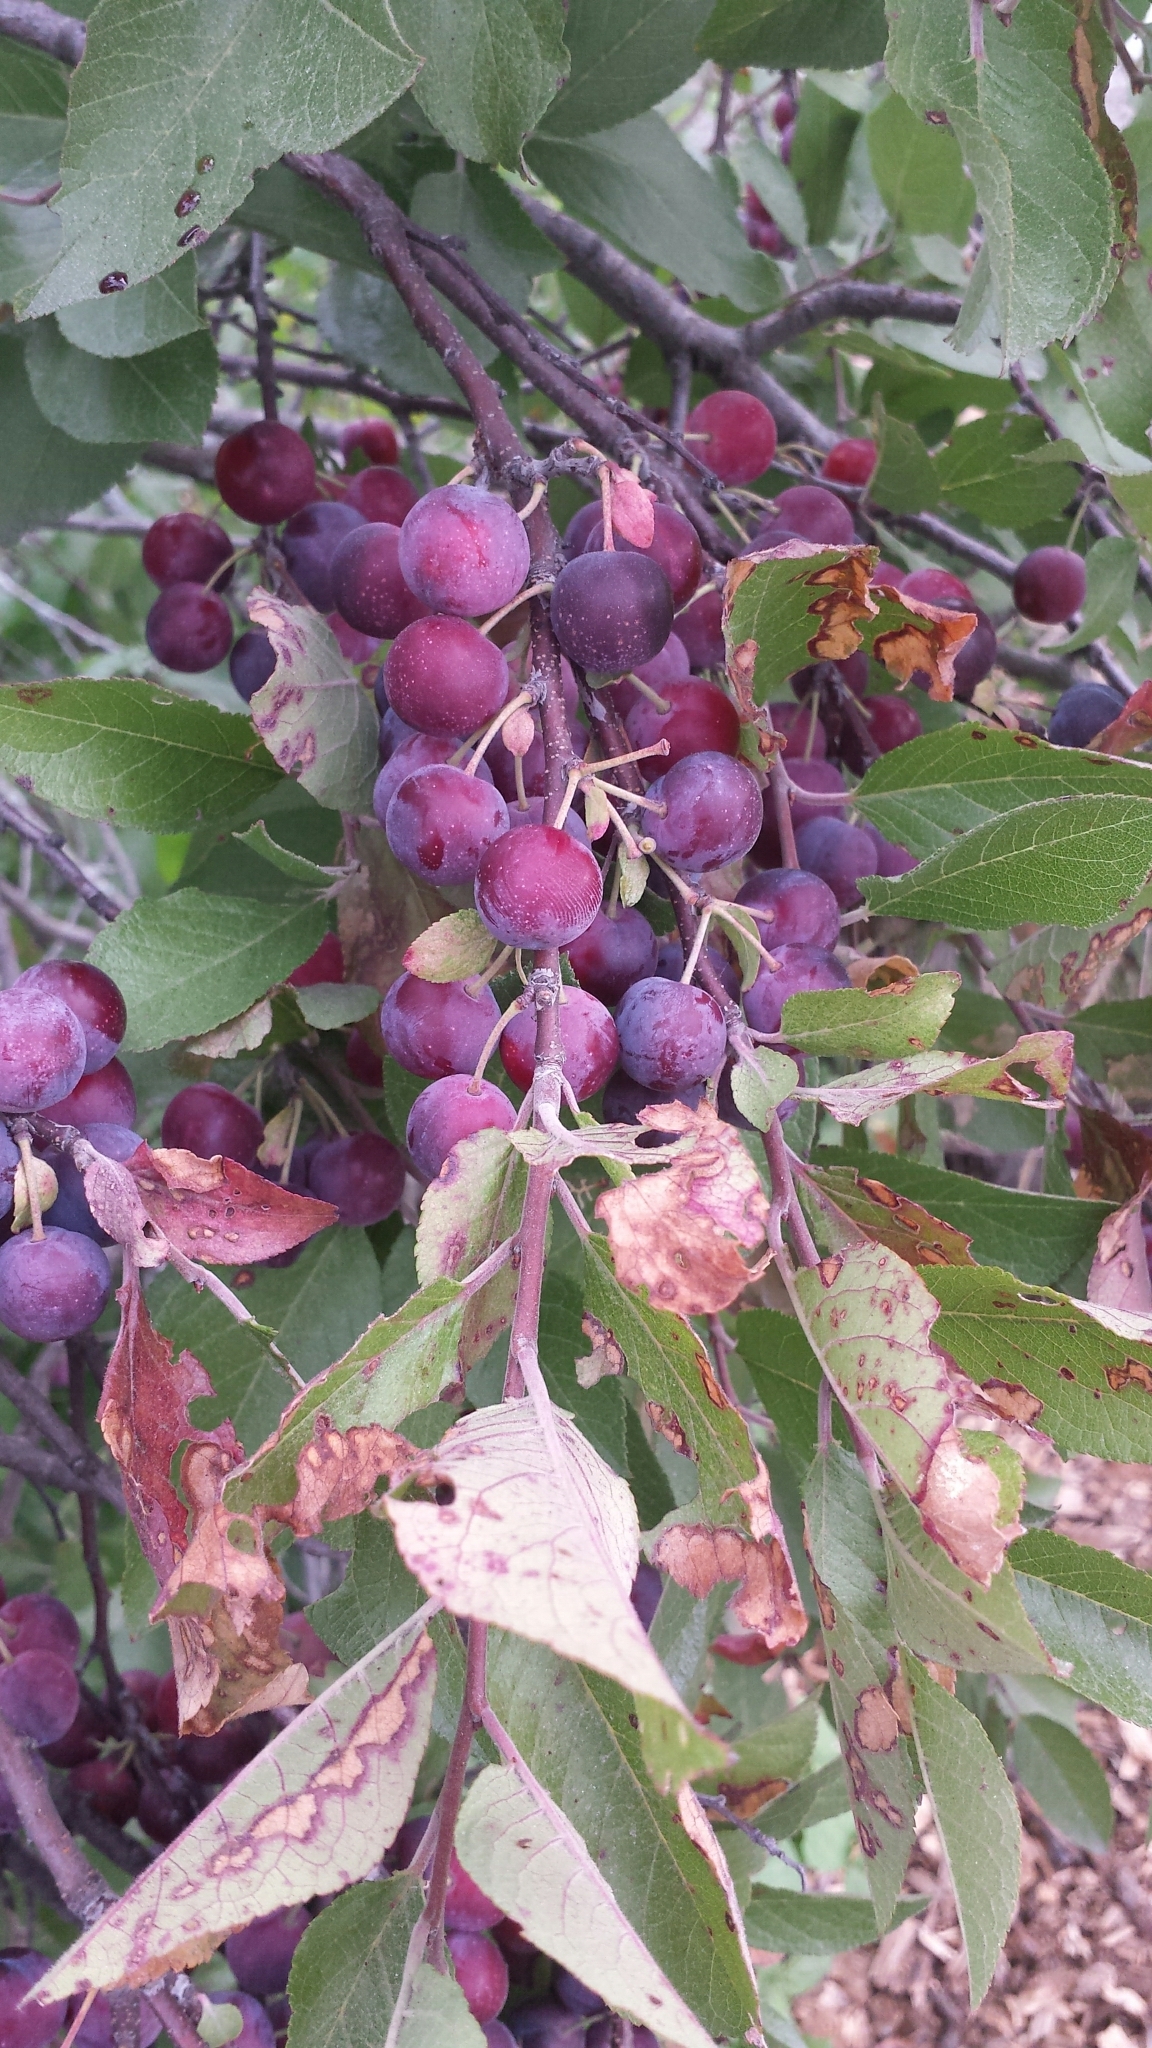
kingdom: Plantae
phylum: Tracheophyta
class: Magnoliopsida
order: Rosales
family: Rosaceae
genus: Prunus
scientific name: Prunus maritima
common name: Beach plum
